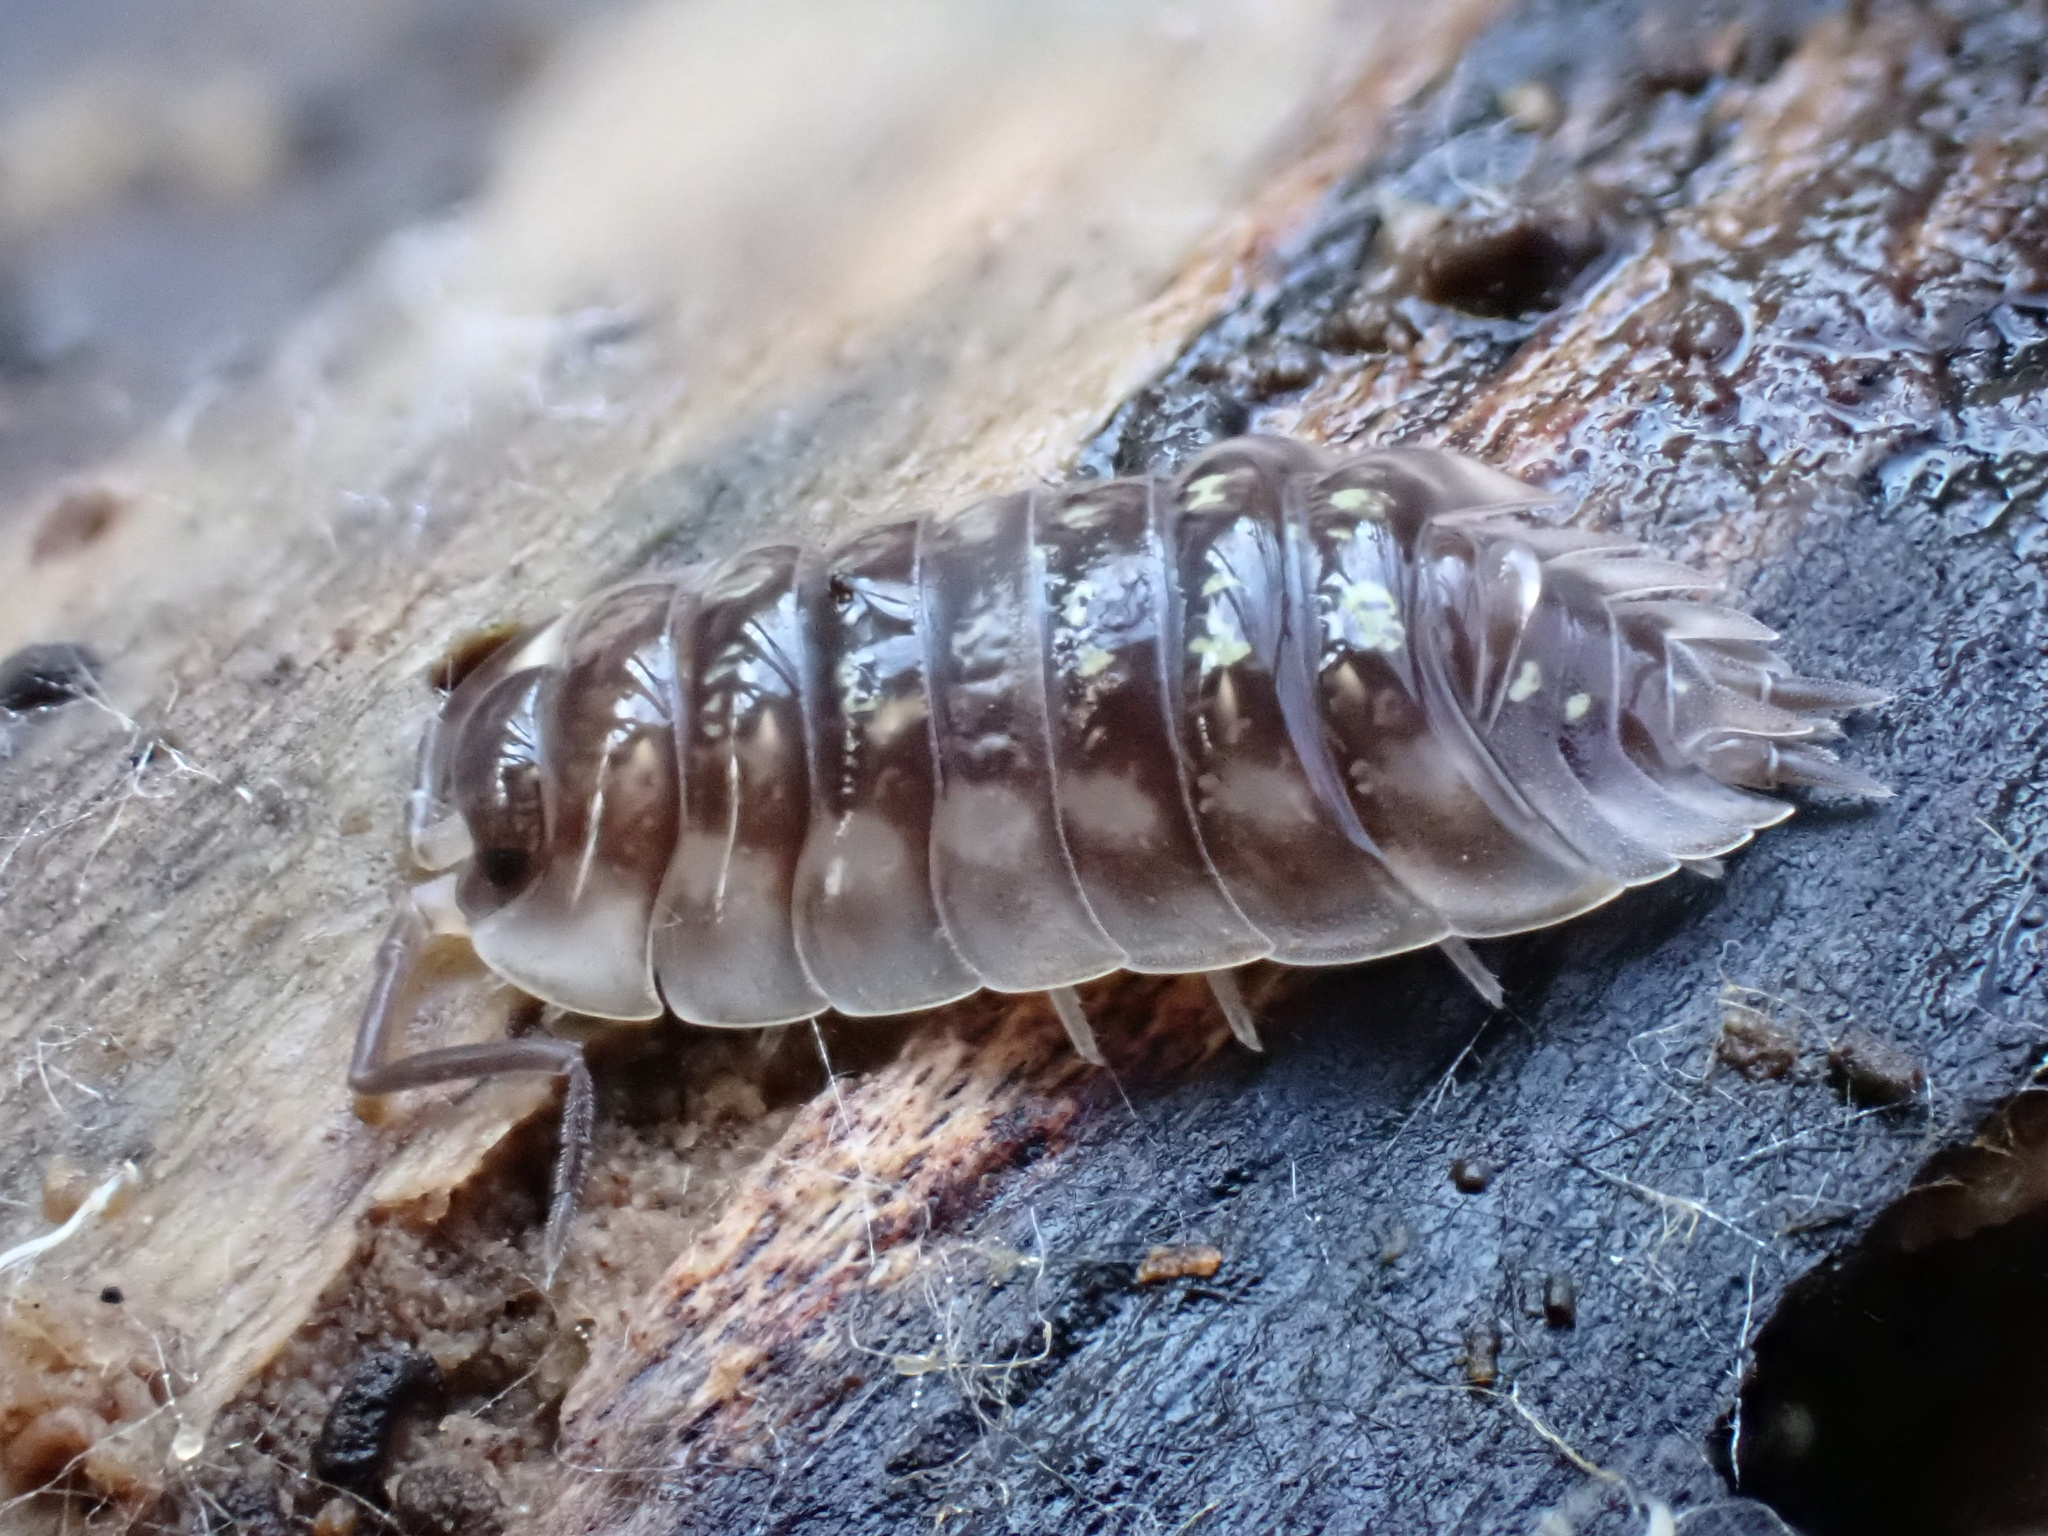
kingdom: Animalia
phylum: Arthropoda
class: Malacostraca
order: Isopoda
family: Oniscidae
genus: Oniscus
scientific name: Oniscus asellus
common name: Common shiny woodlouse
